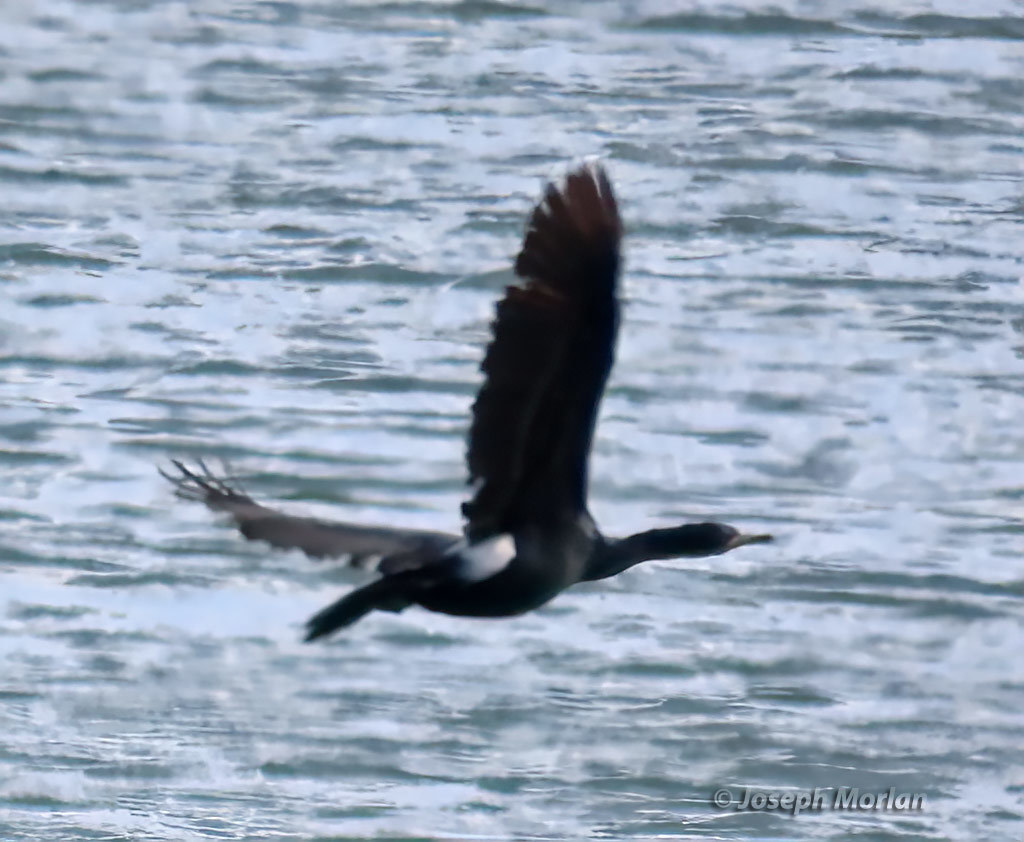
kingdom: Animalia
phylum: Chordata
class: Aves
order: Suliformes
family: Phalacrocoracidae
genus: Phalacrocorax
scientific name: Phalacrocorax pelagicus
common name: Pelagic cormorant
